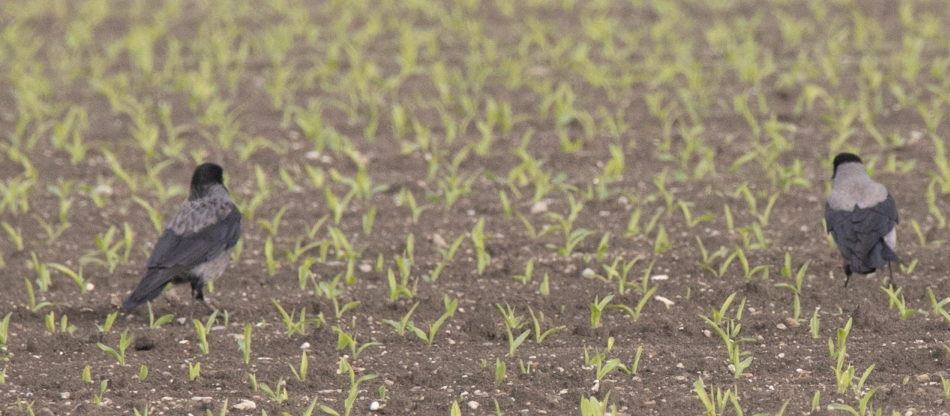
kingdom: Animalia
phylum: Chordata
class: Aves
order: Passeriformes
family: Corvidae
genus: Corvus
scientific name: Corvus cornix
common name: Hooded crow
